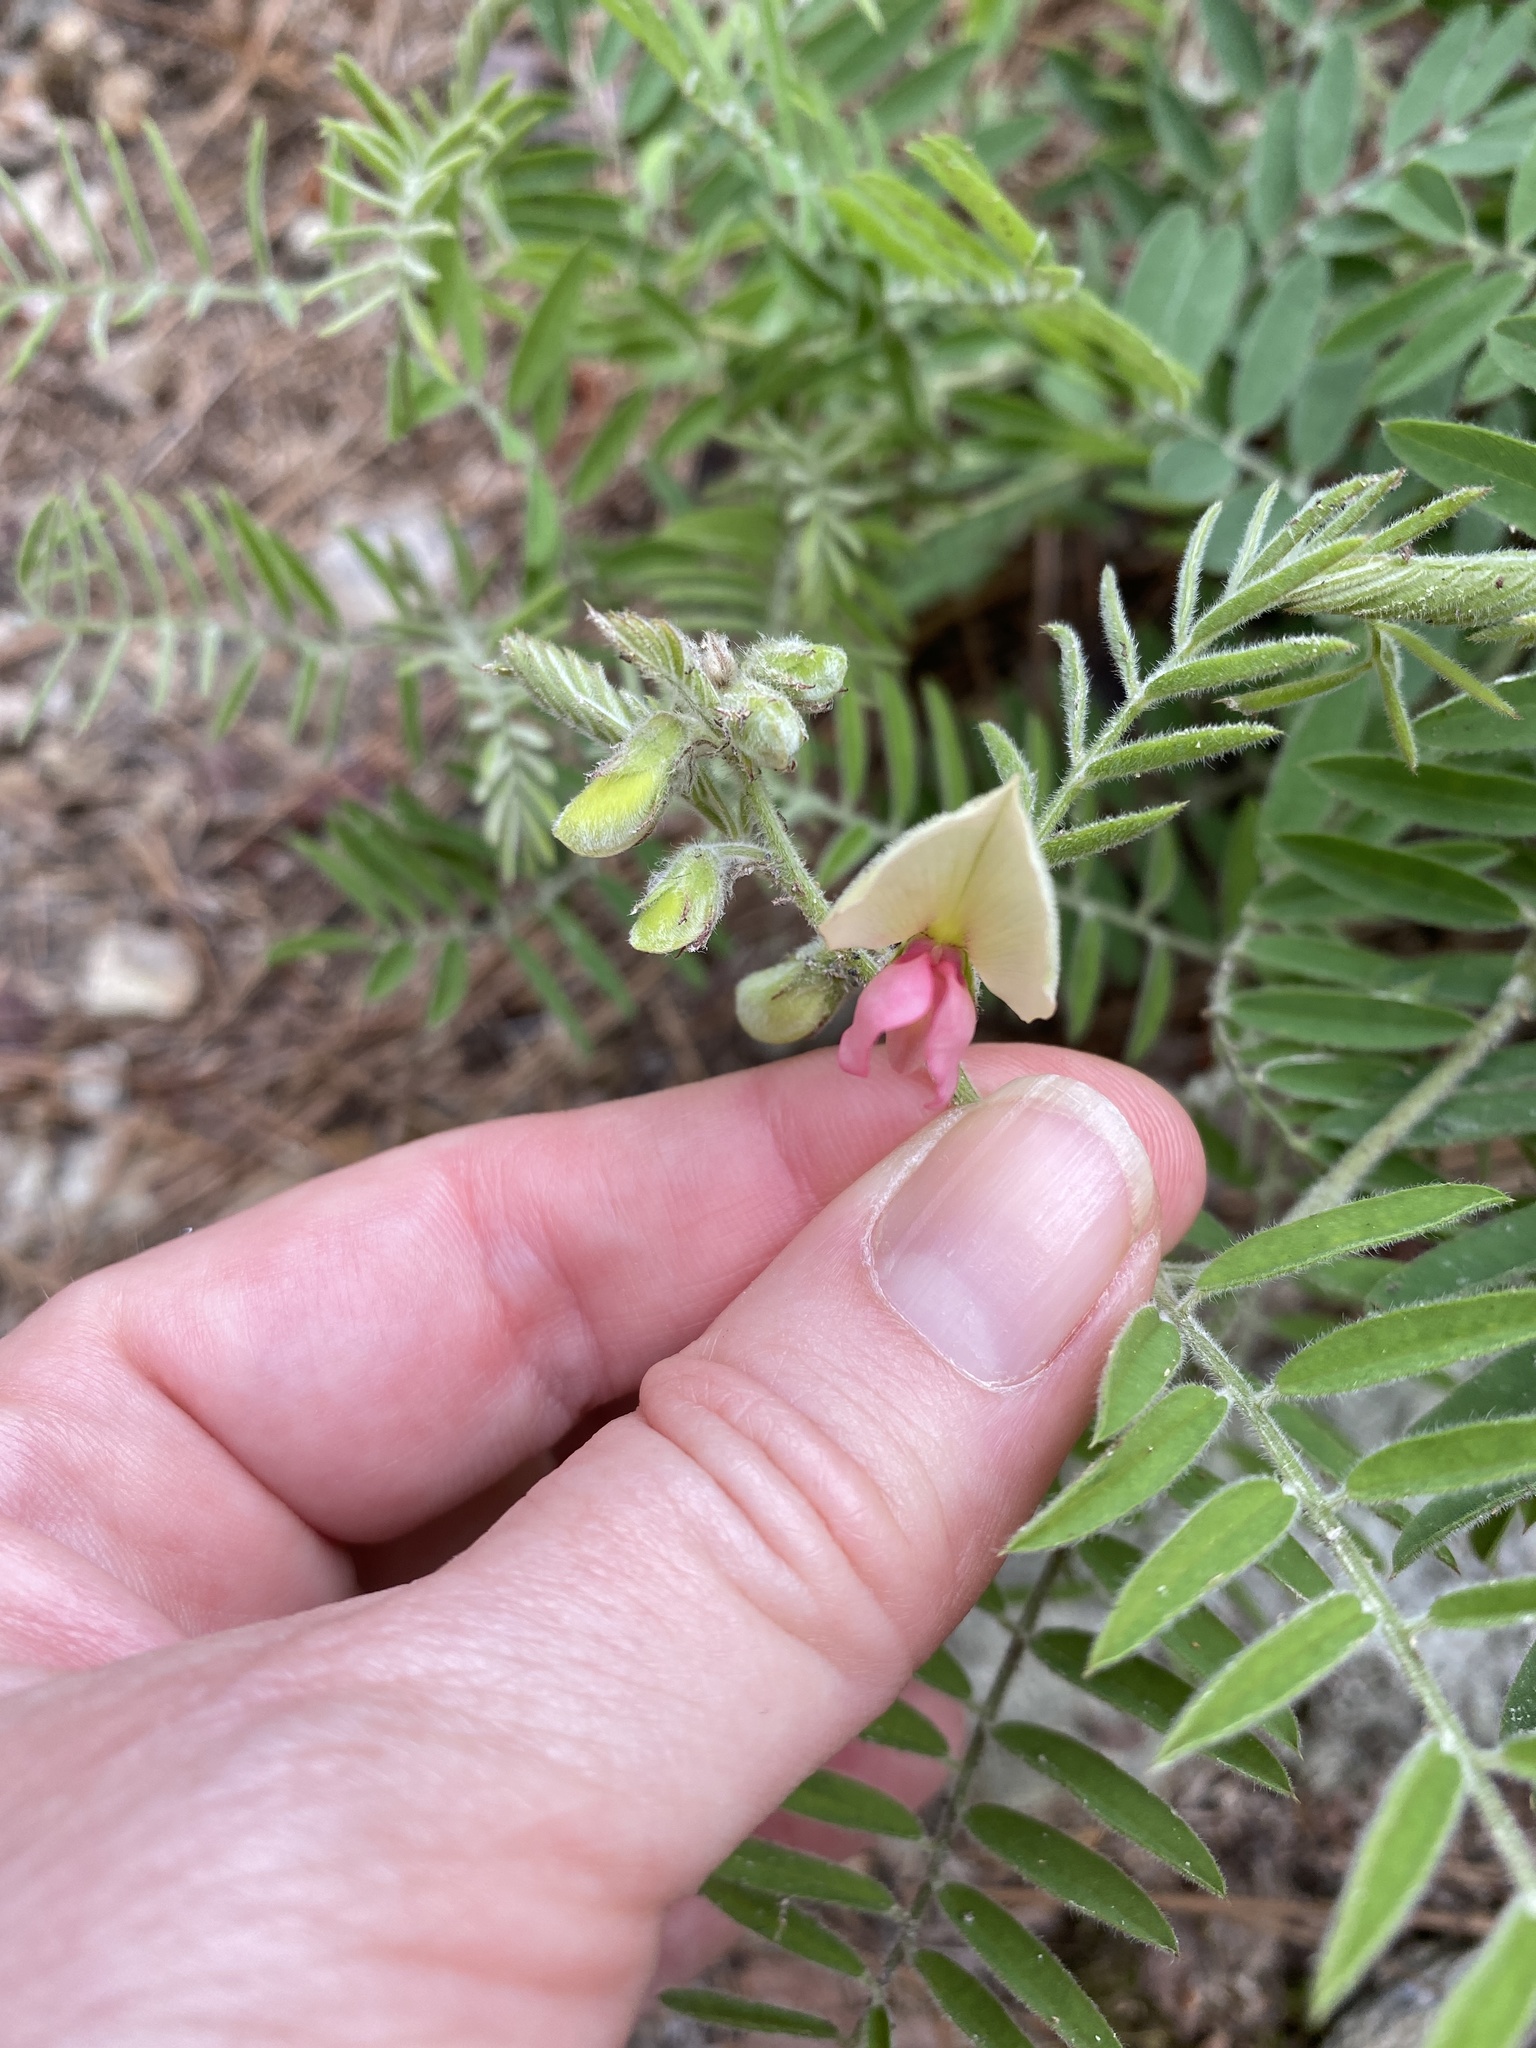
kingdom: Plantae
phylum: Tracheophyta
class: Magnoliopsida
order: Fabales
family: Fabaceae
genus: Tephrosia
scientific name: Tephrosia virginiana
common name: Rabbit-pea
